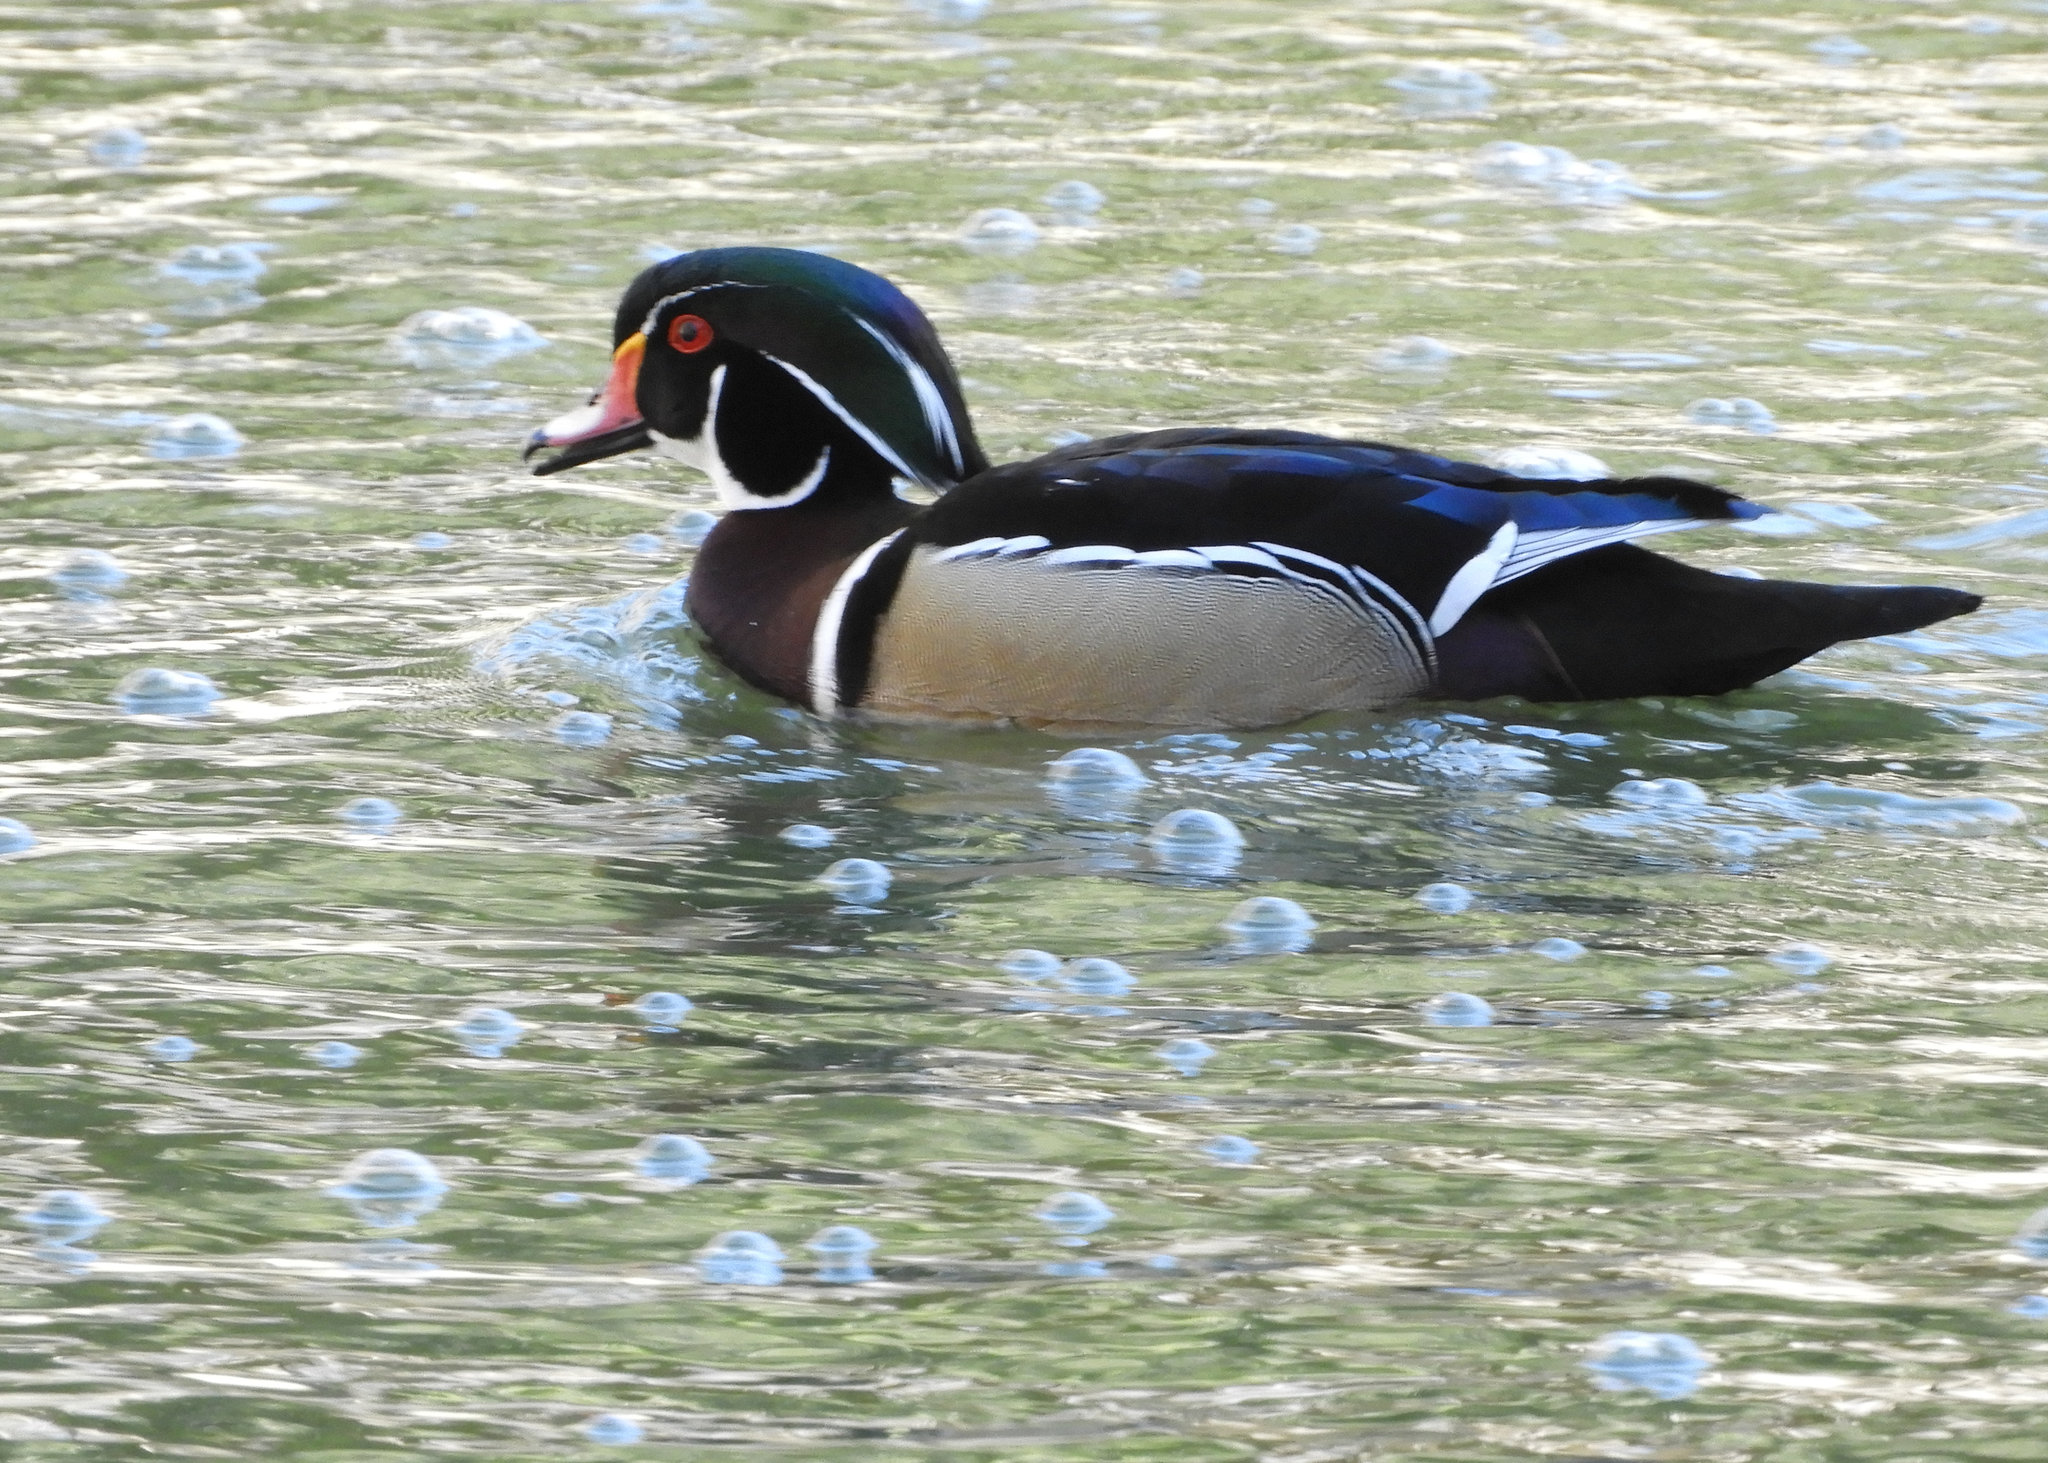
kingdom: Animalia
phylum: Chordata
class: Aves
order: Anseriformes
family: Anatidae
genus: Aix
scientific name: Aix sponsa
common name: Wood duck
